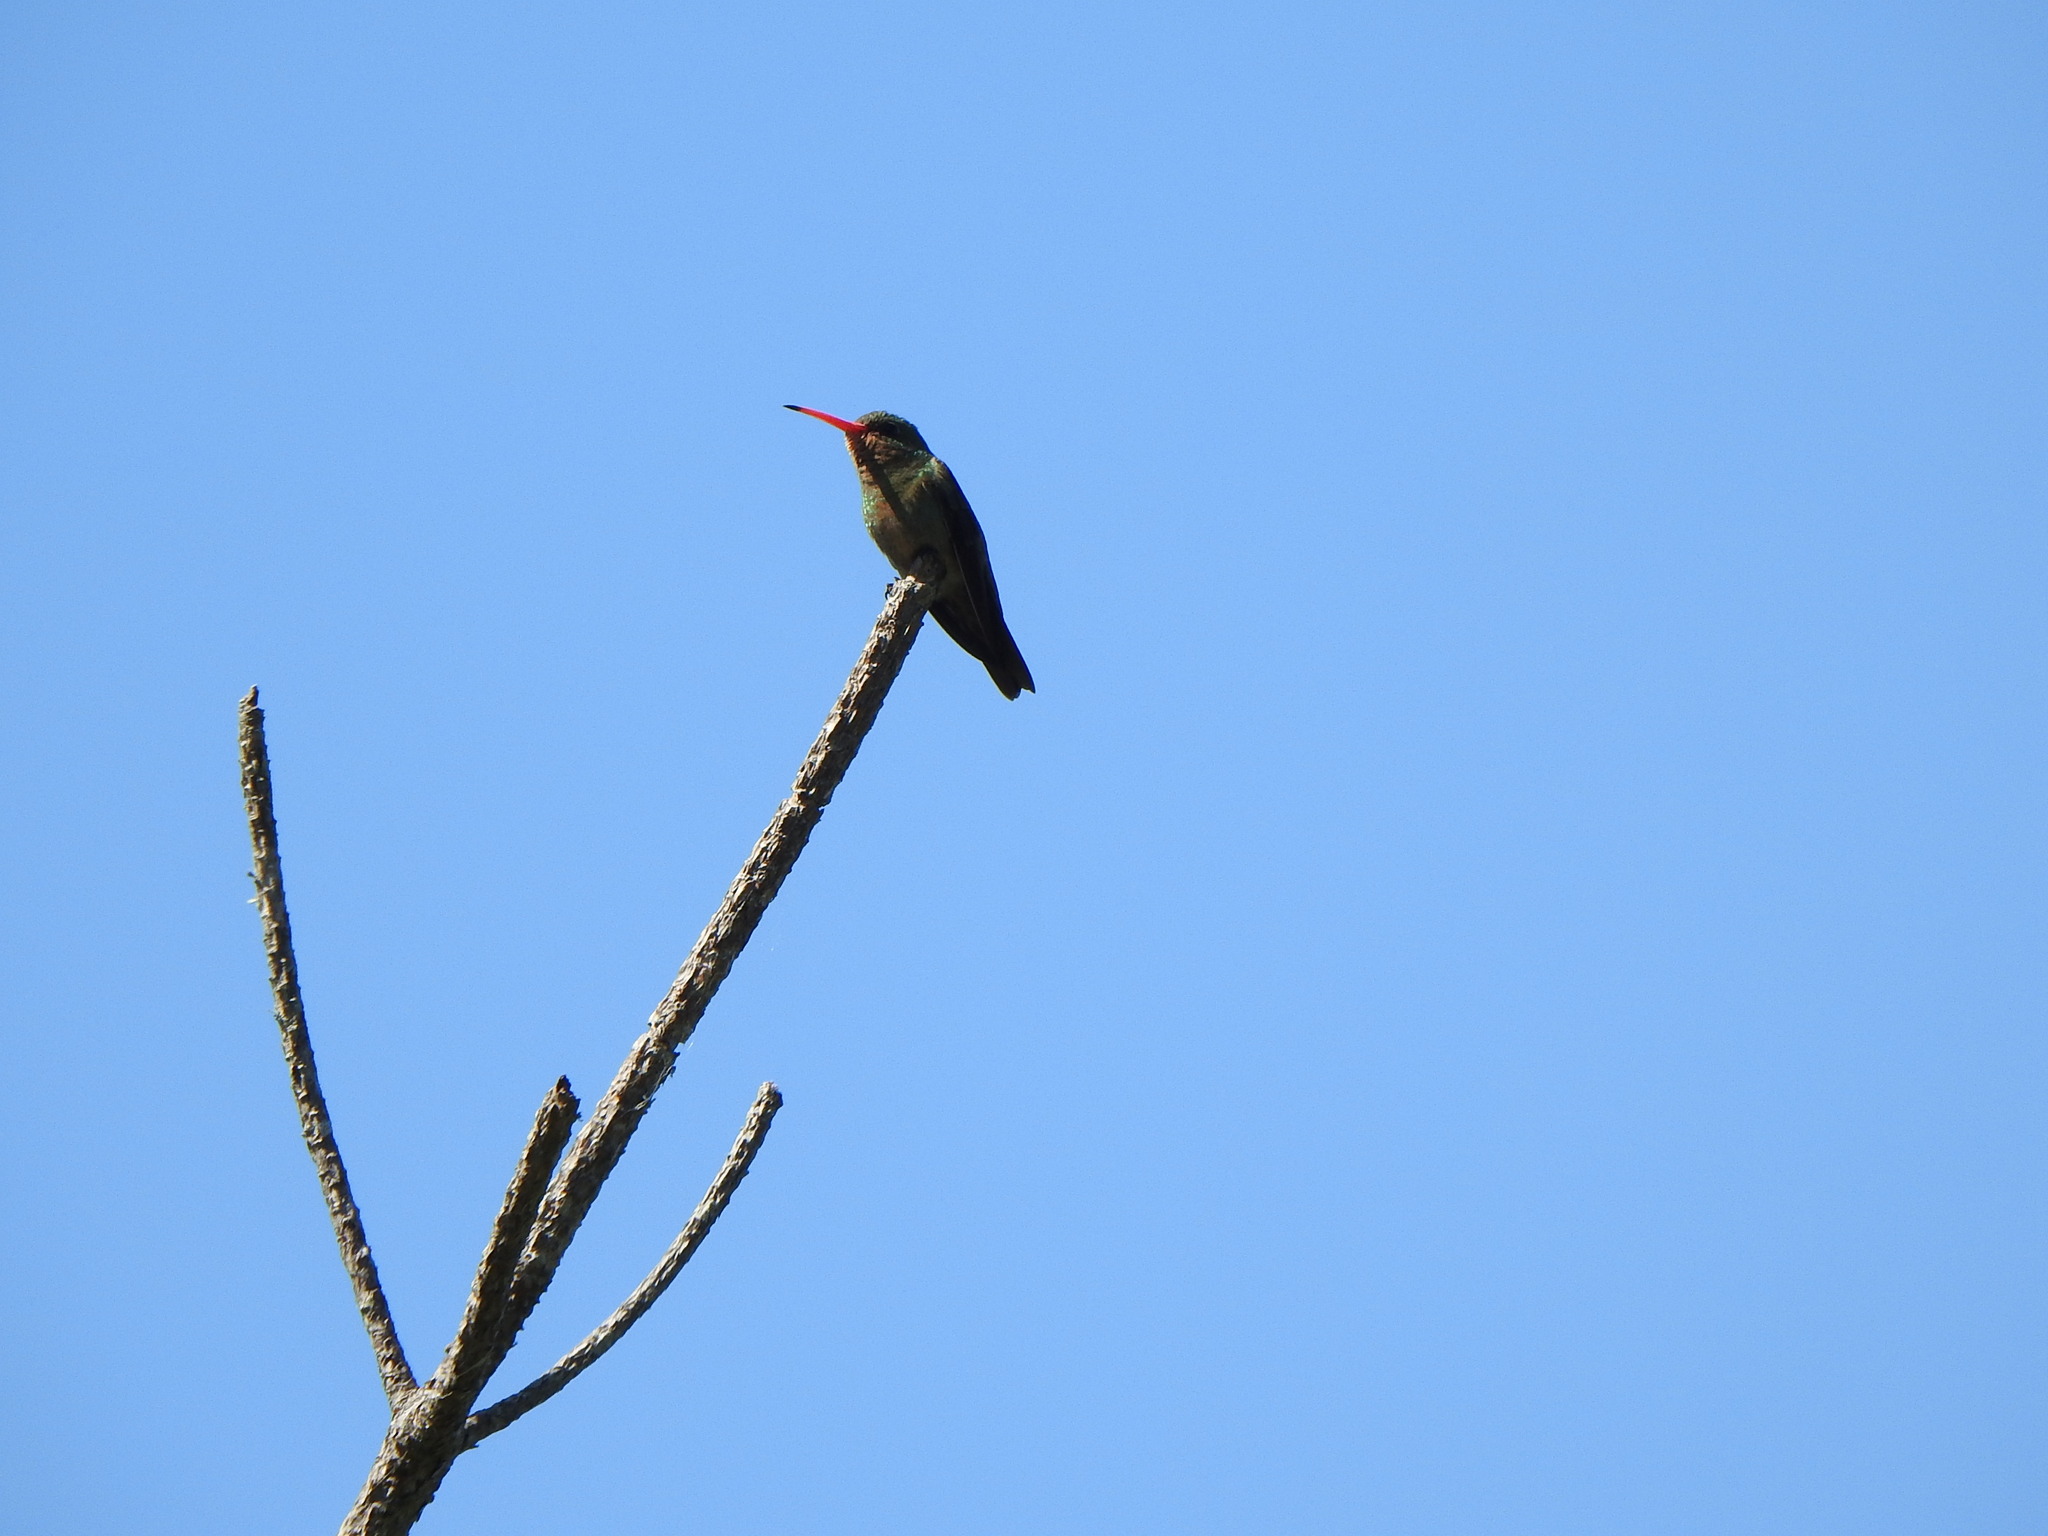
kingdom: Animalia
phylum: Chordata
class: Aves
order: Apodiformes
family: Trochilidae
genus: Hylocharis
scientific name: Hylocharis chrysura
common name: Gilded sapphire
